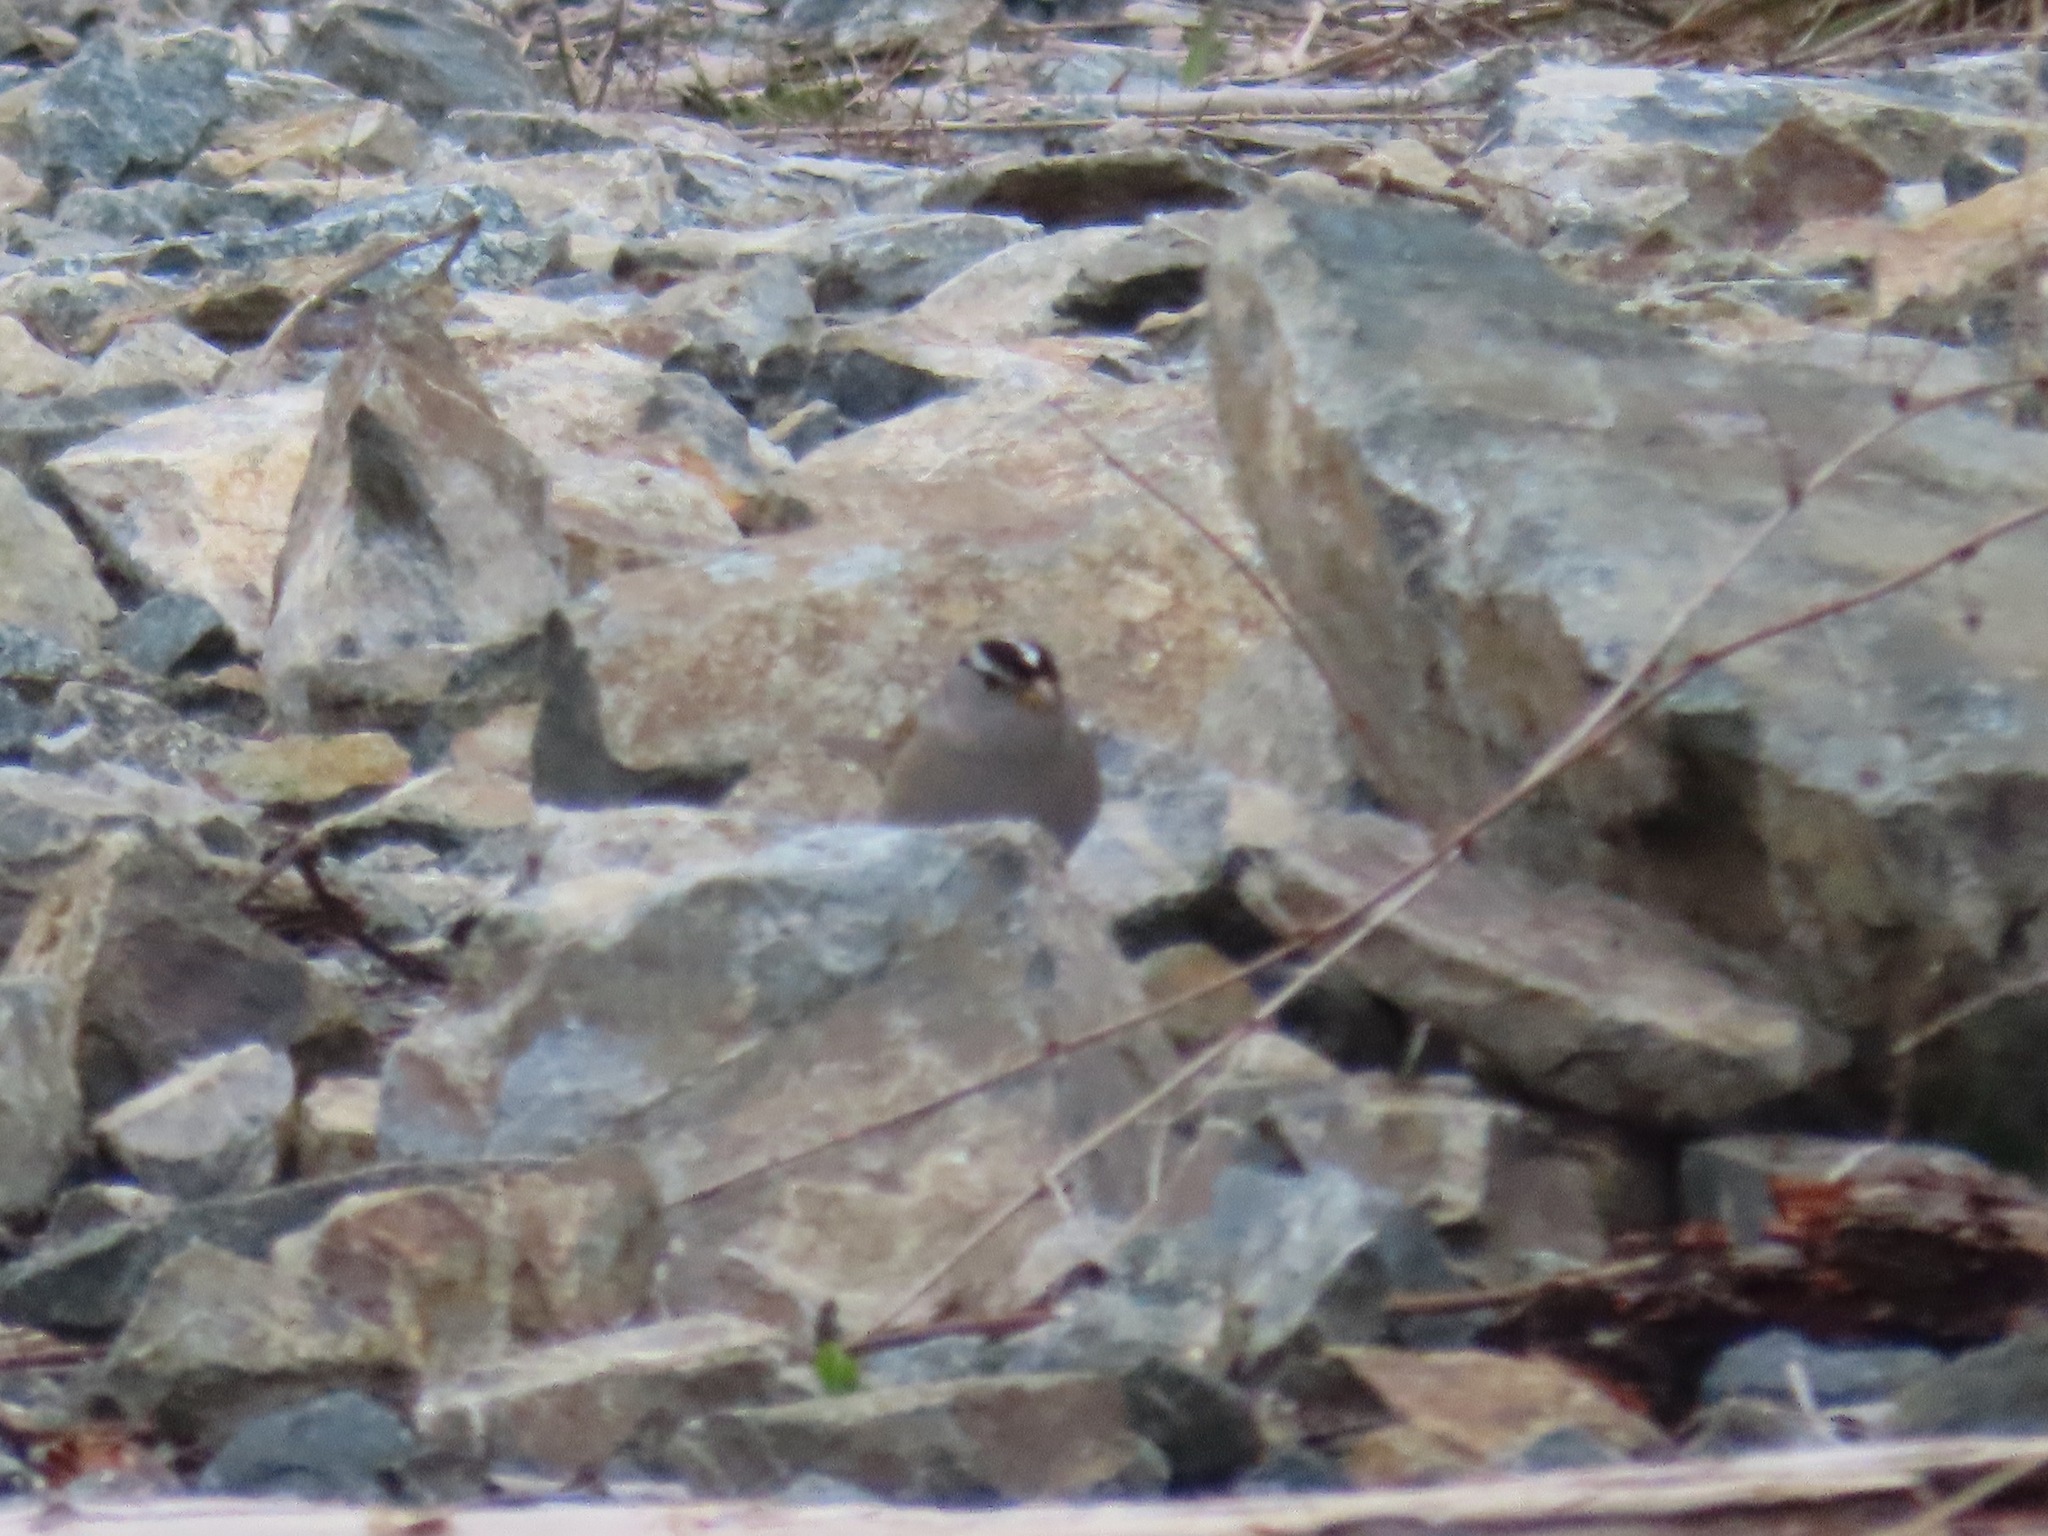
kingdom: Animalia
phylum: Chordata
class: Aves
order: Passeriformes
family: Passerellidae
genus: Zonotrichia
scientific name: Zonotrichia leucophrys
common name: White-crowned sparrow
